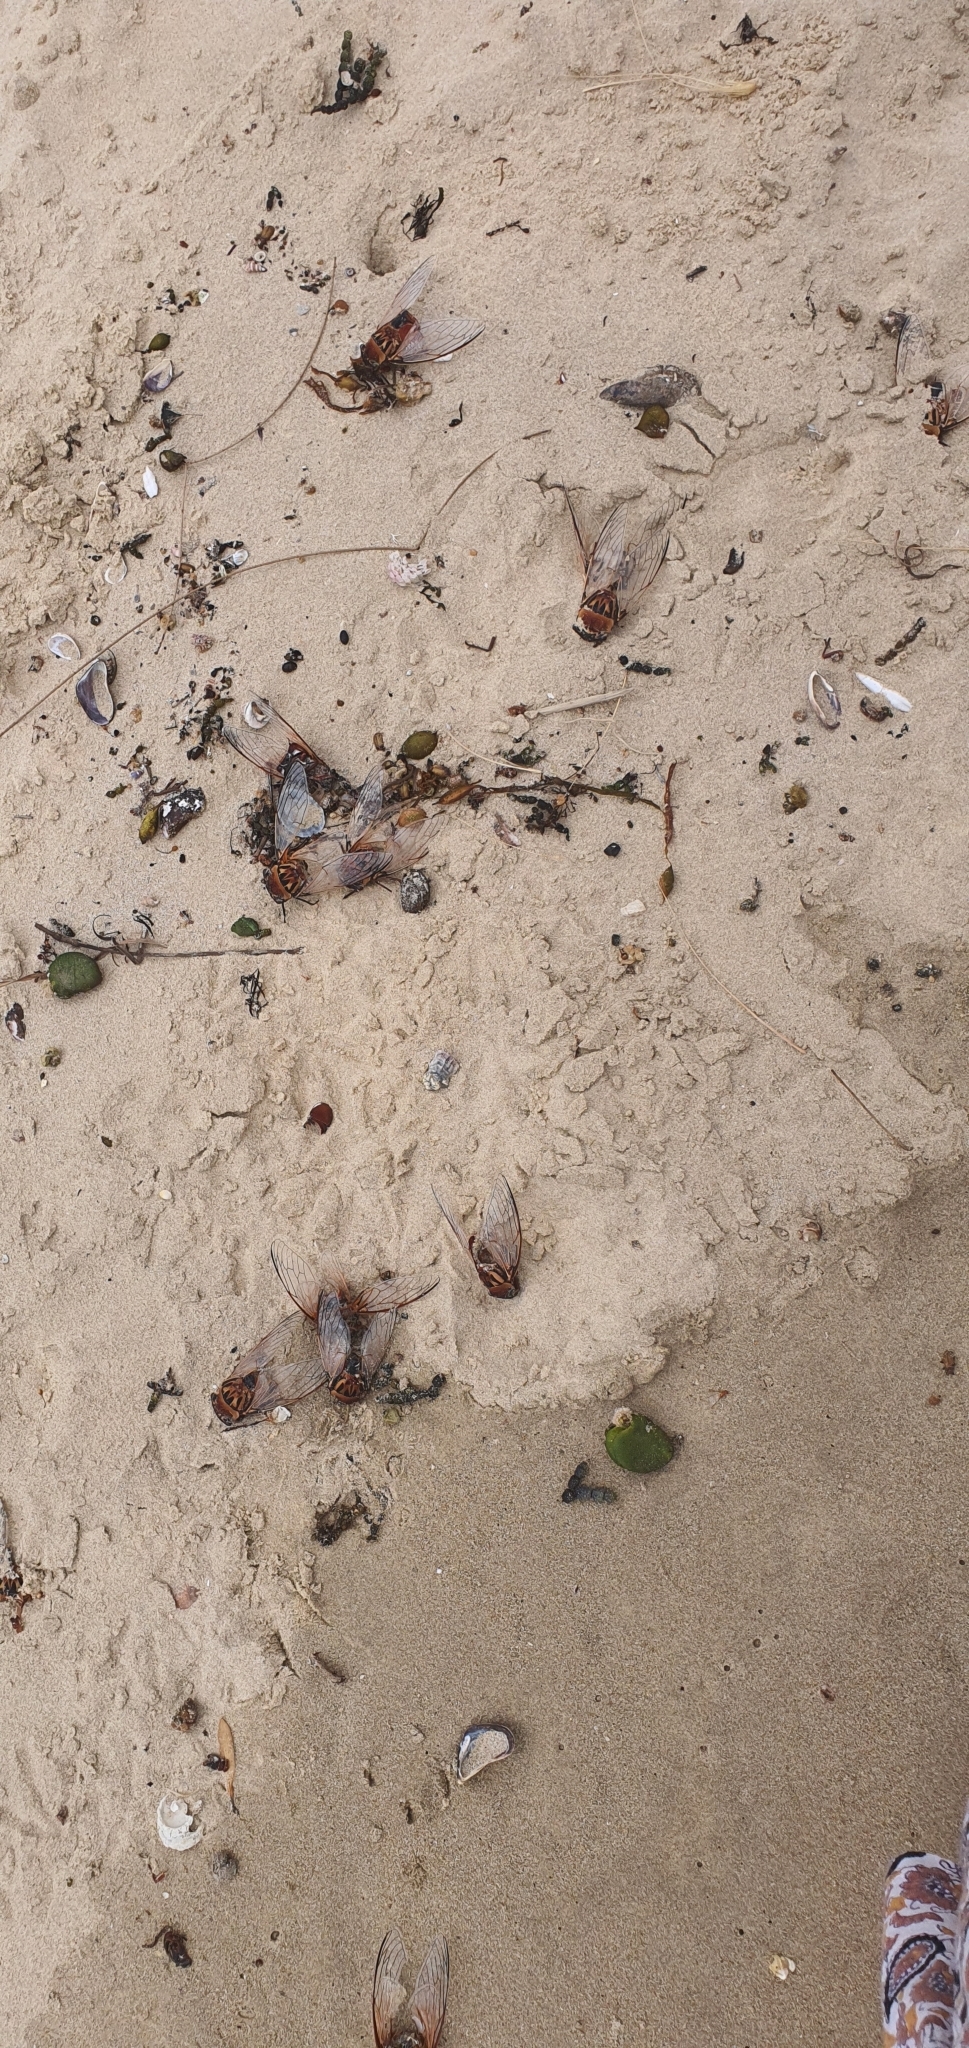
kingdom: Animalia
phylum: Arthropoda
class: Insecta
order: Hemiptera
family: Cicadidae
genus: Thopha
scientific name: Thopha saccata
